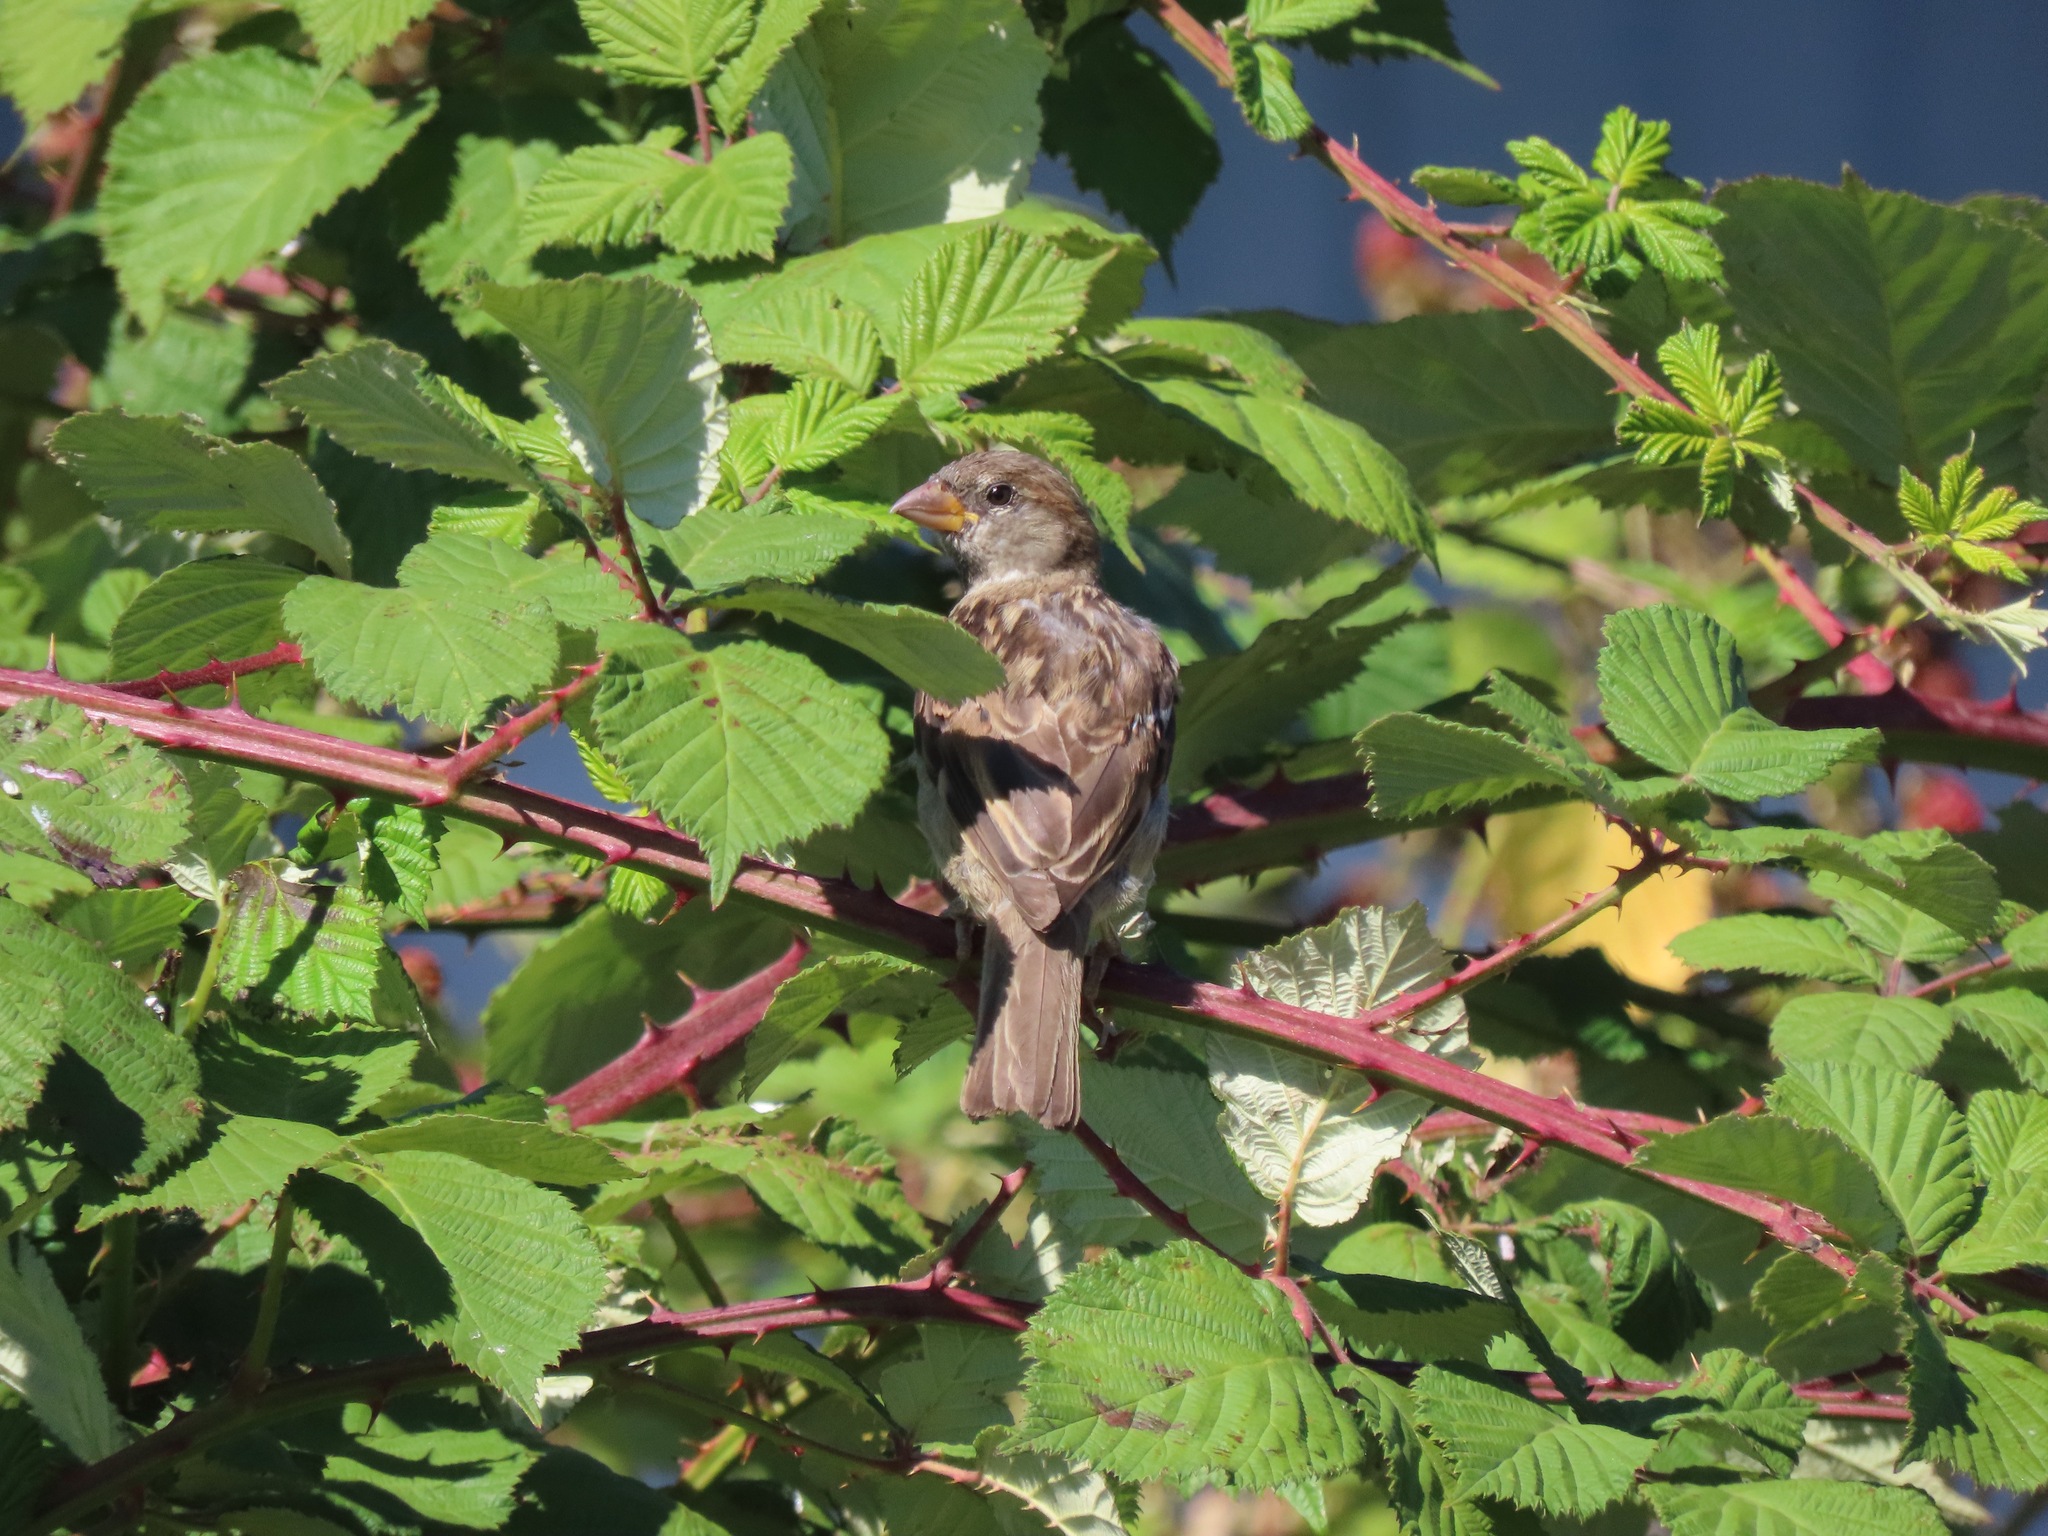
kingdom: Animalia
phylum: Chordata
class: Aves
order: Passeriformes
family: Passeridae
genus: Passer
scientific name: Passer domesticus
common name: House sparrow
